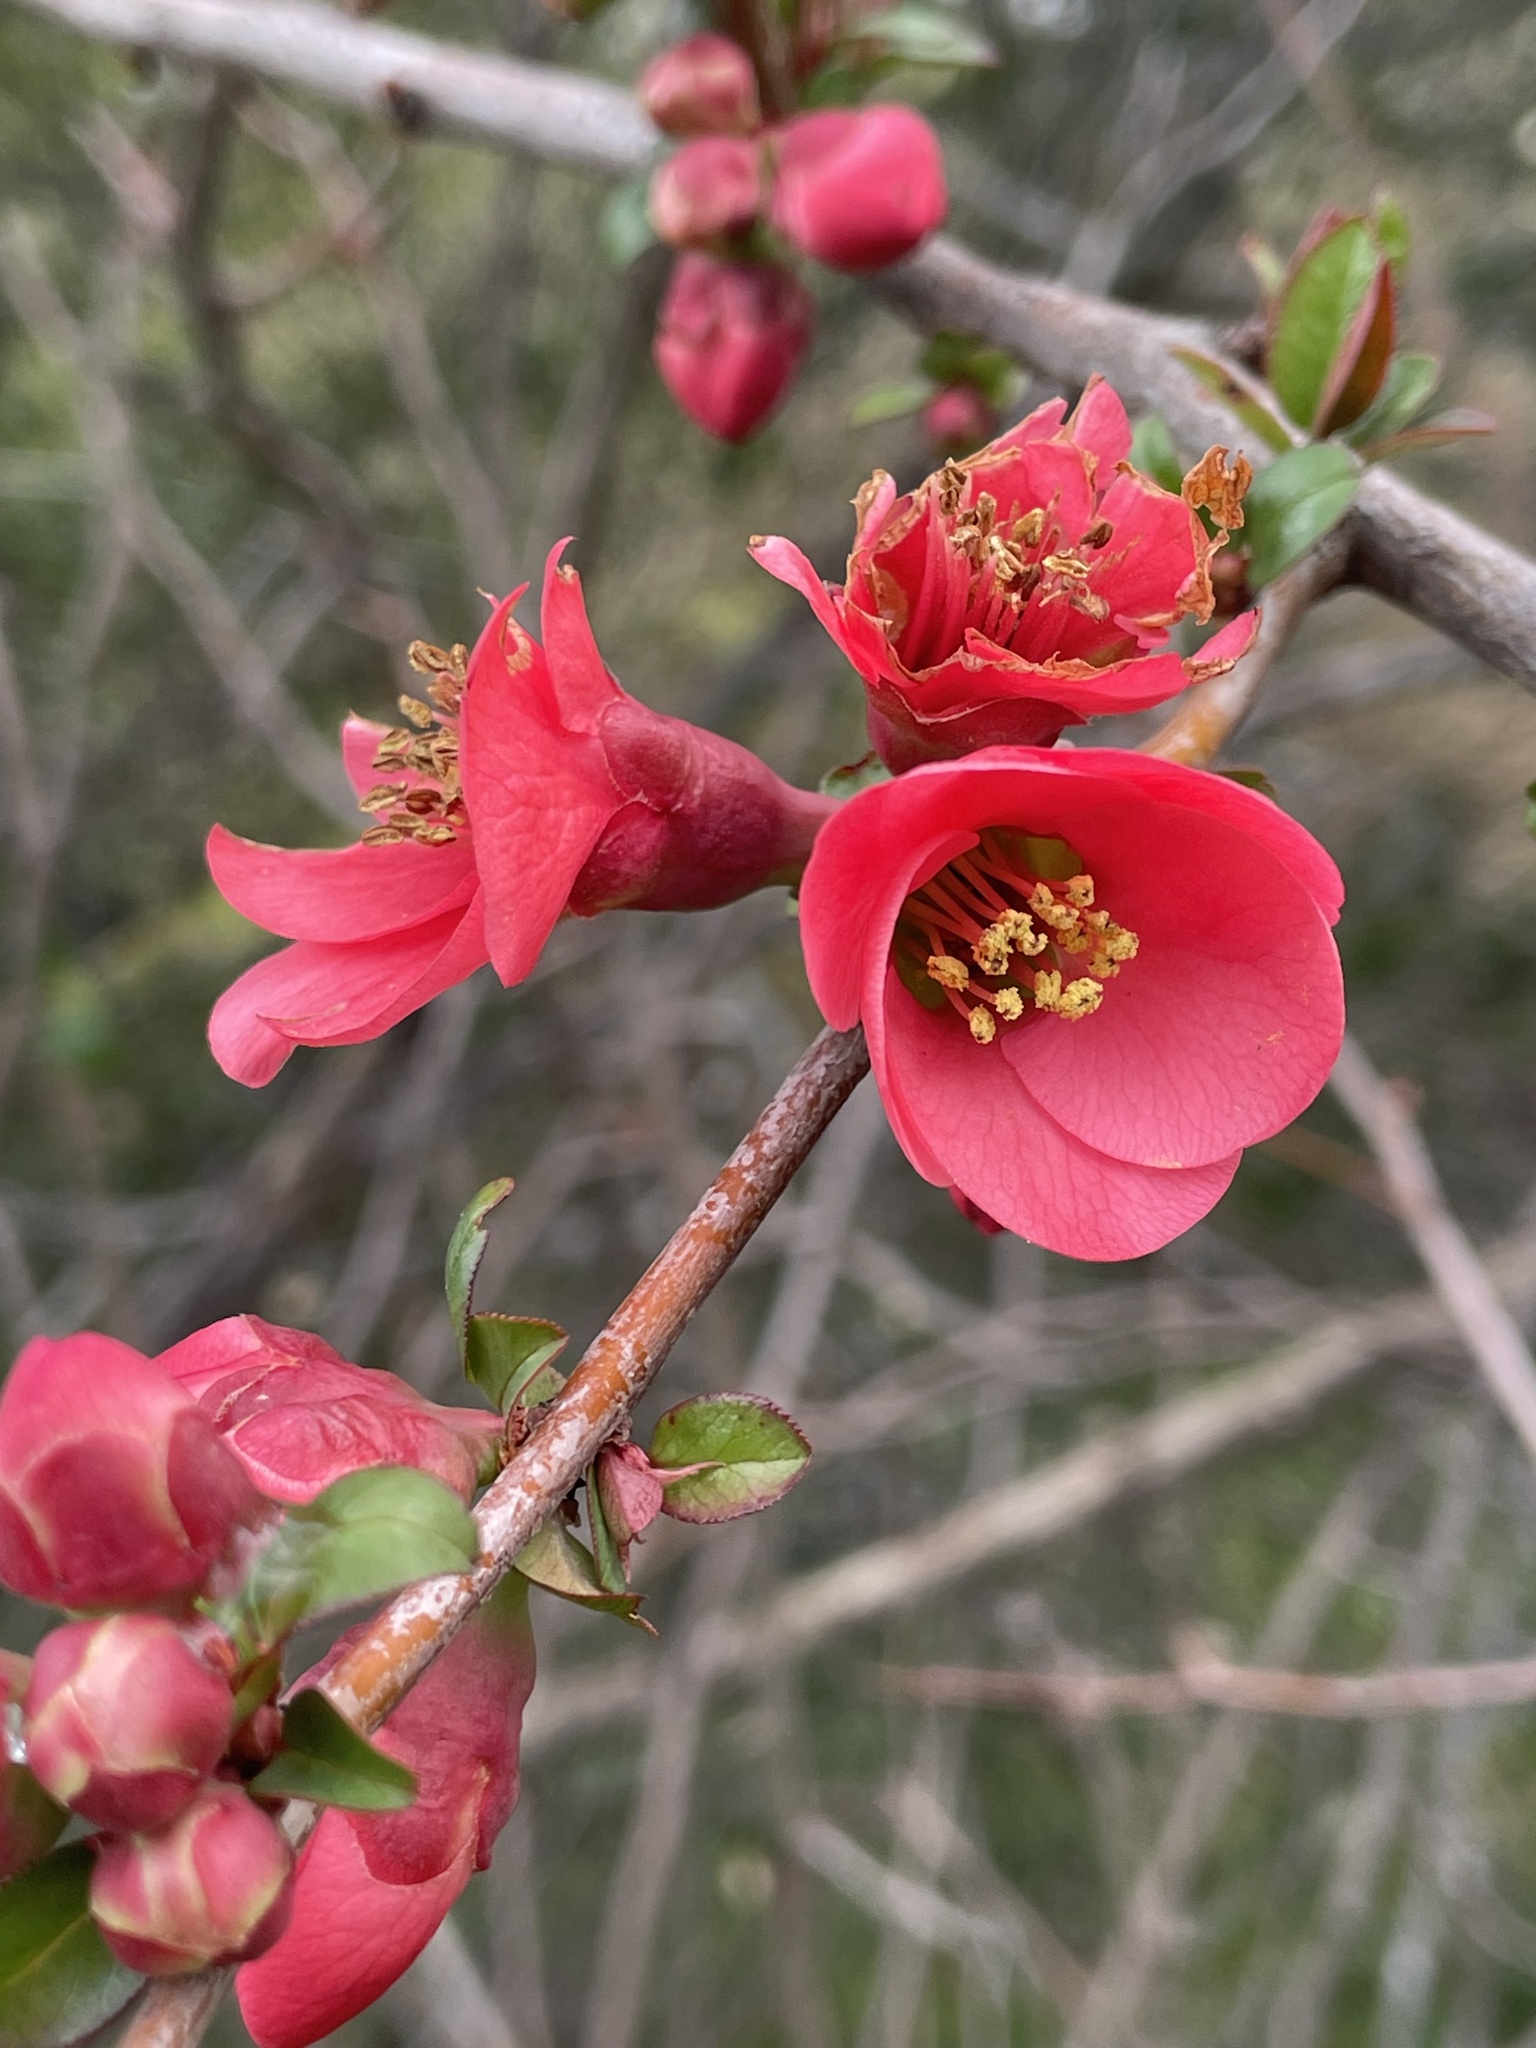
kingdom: Plantae
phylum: Tracheophyta
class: Magnoliopsida
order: Rosales
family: Rosaceae
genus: Chaenomeles
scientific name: Chaenomeles speciosa
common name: Japanese quince
